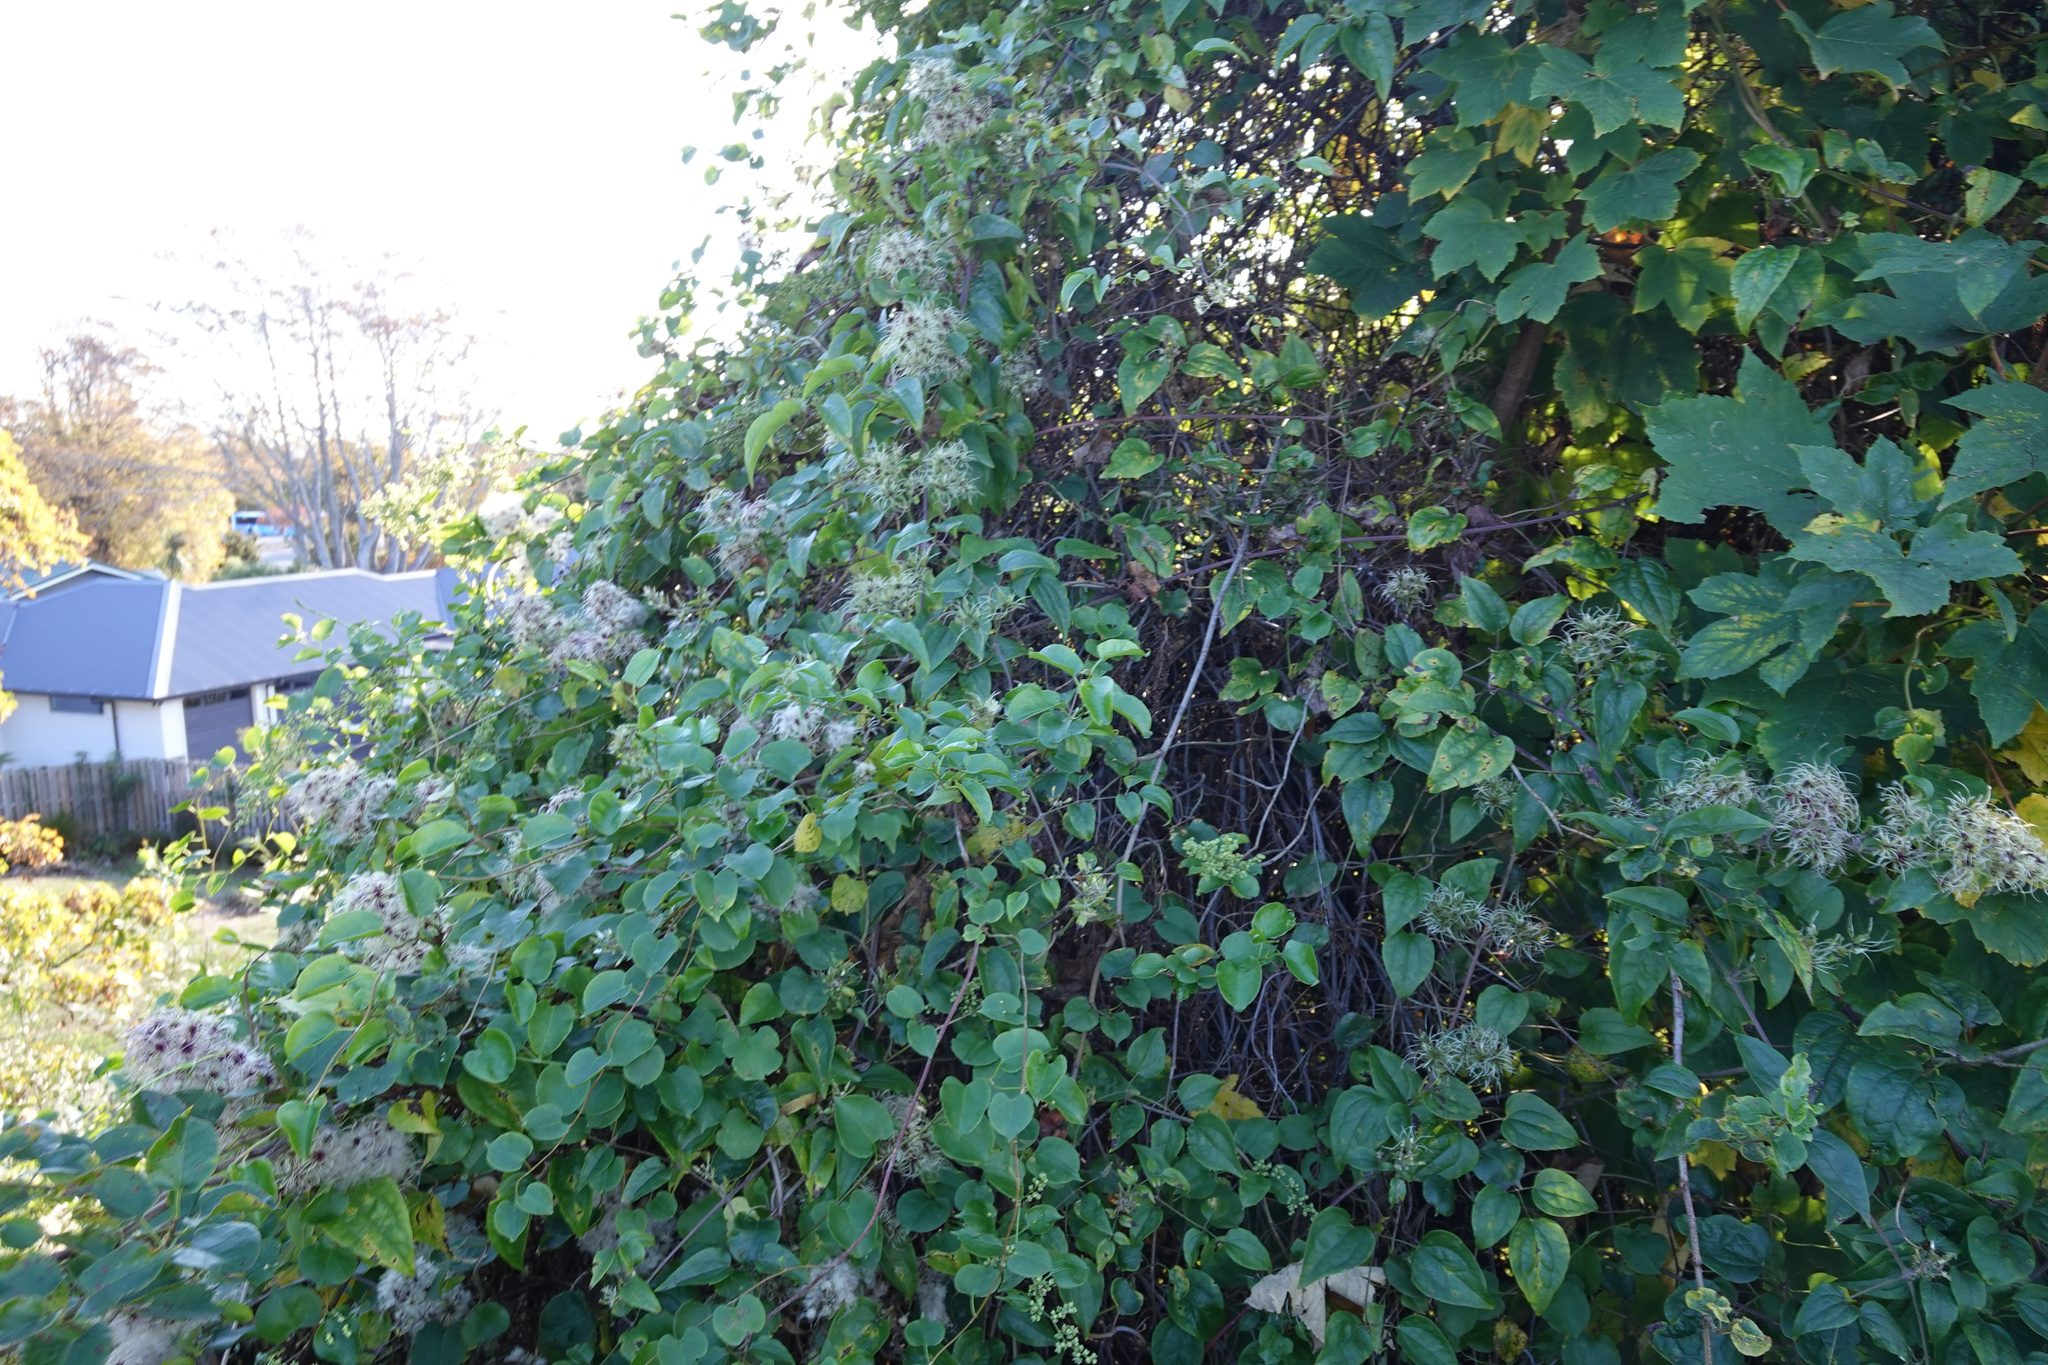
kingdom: Plantae
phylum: Tracheophyta
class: Magnoliopsida
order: Ranunculales
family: Ranunculaceae
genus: Clematis
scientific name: Clematis vitalba
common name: Evergreen clematis
